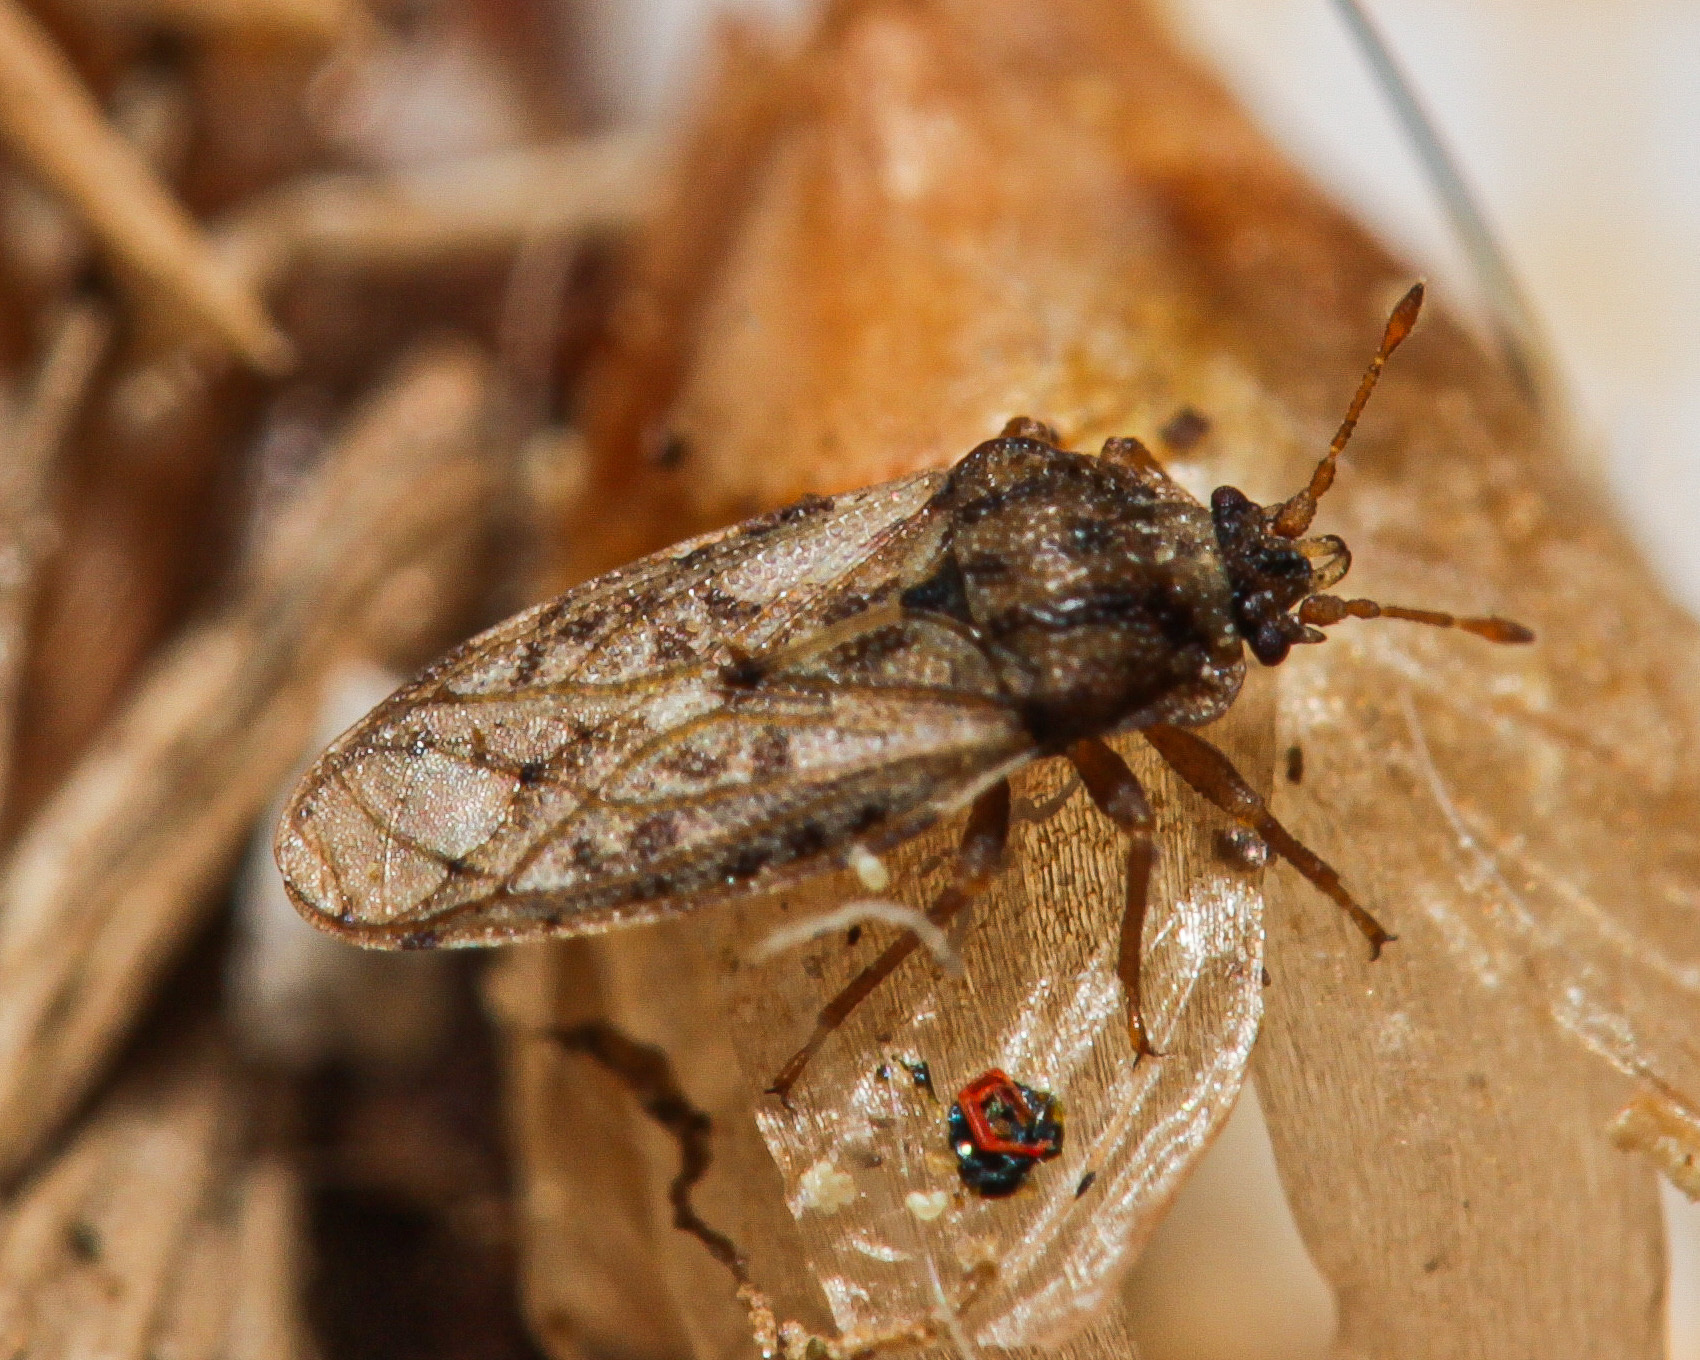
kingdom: Animalia
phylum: Arthropoda
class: Insecta
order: Hemiptera
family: Piesmatidae
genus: Piesma
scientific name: Piesma maculata
